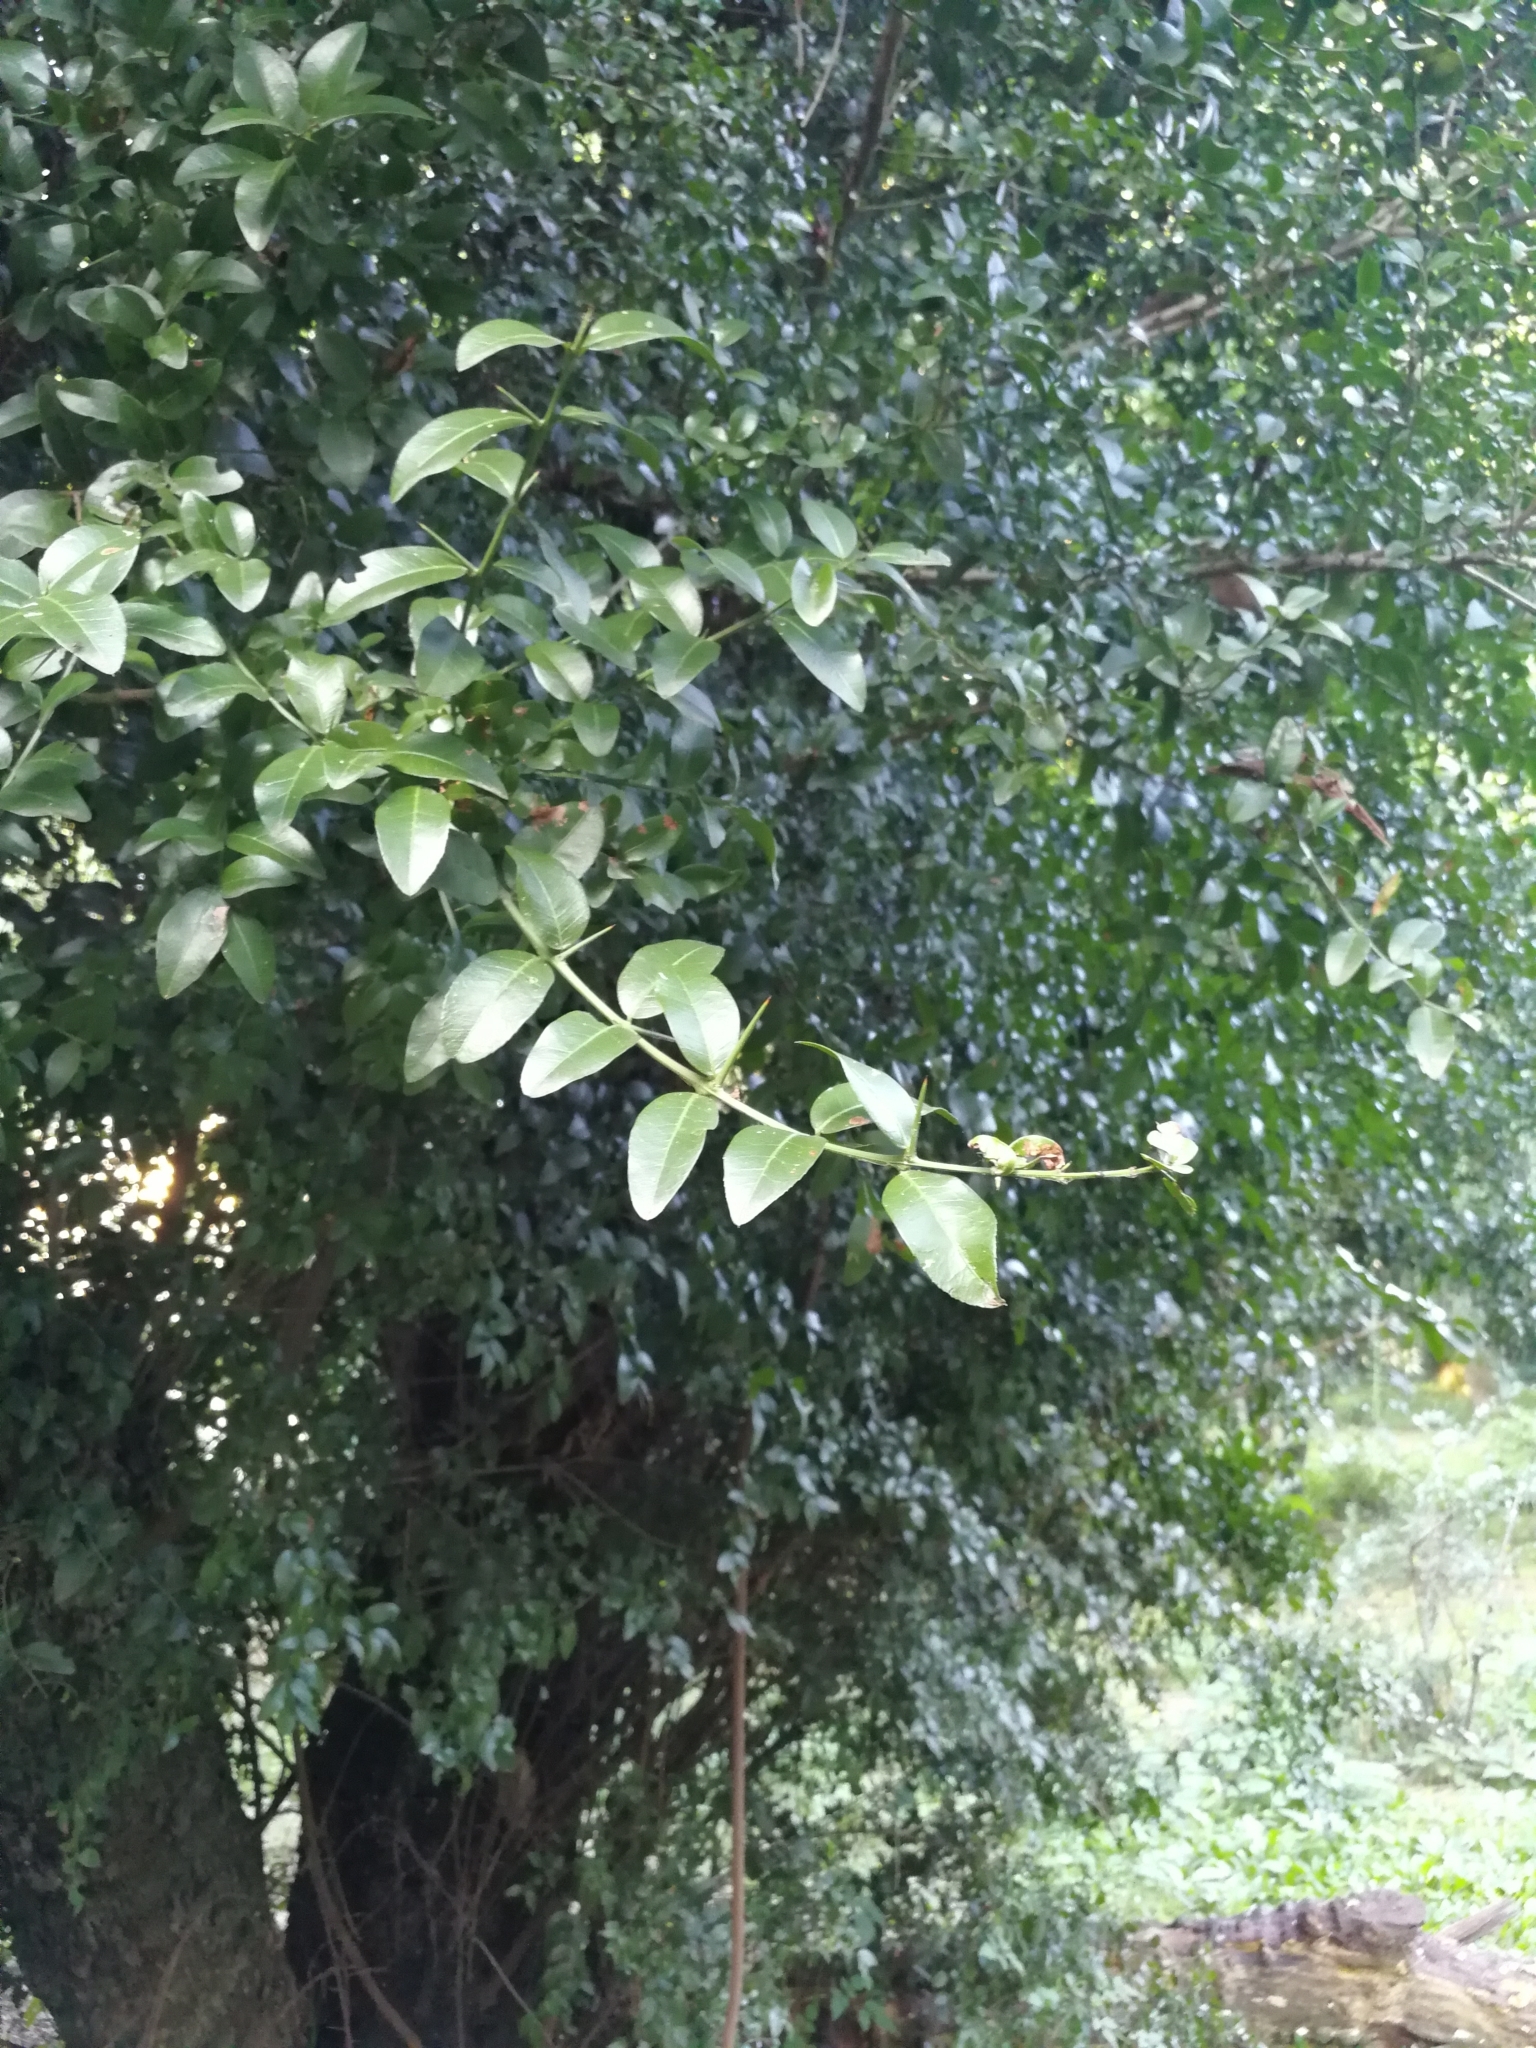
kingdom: Plantae
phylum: Tracheophyta
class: Magnoliopsida
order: Rosales
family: Rhamnaceae
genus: Scutia
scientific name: Scutia buxifolia
